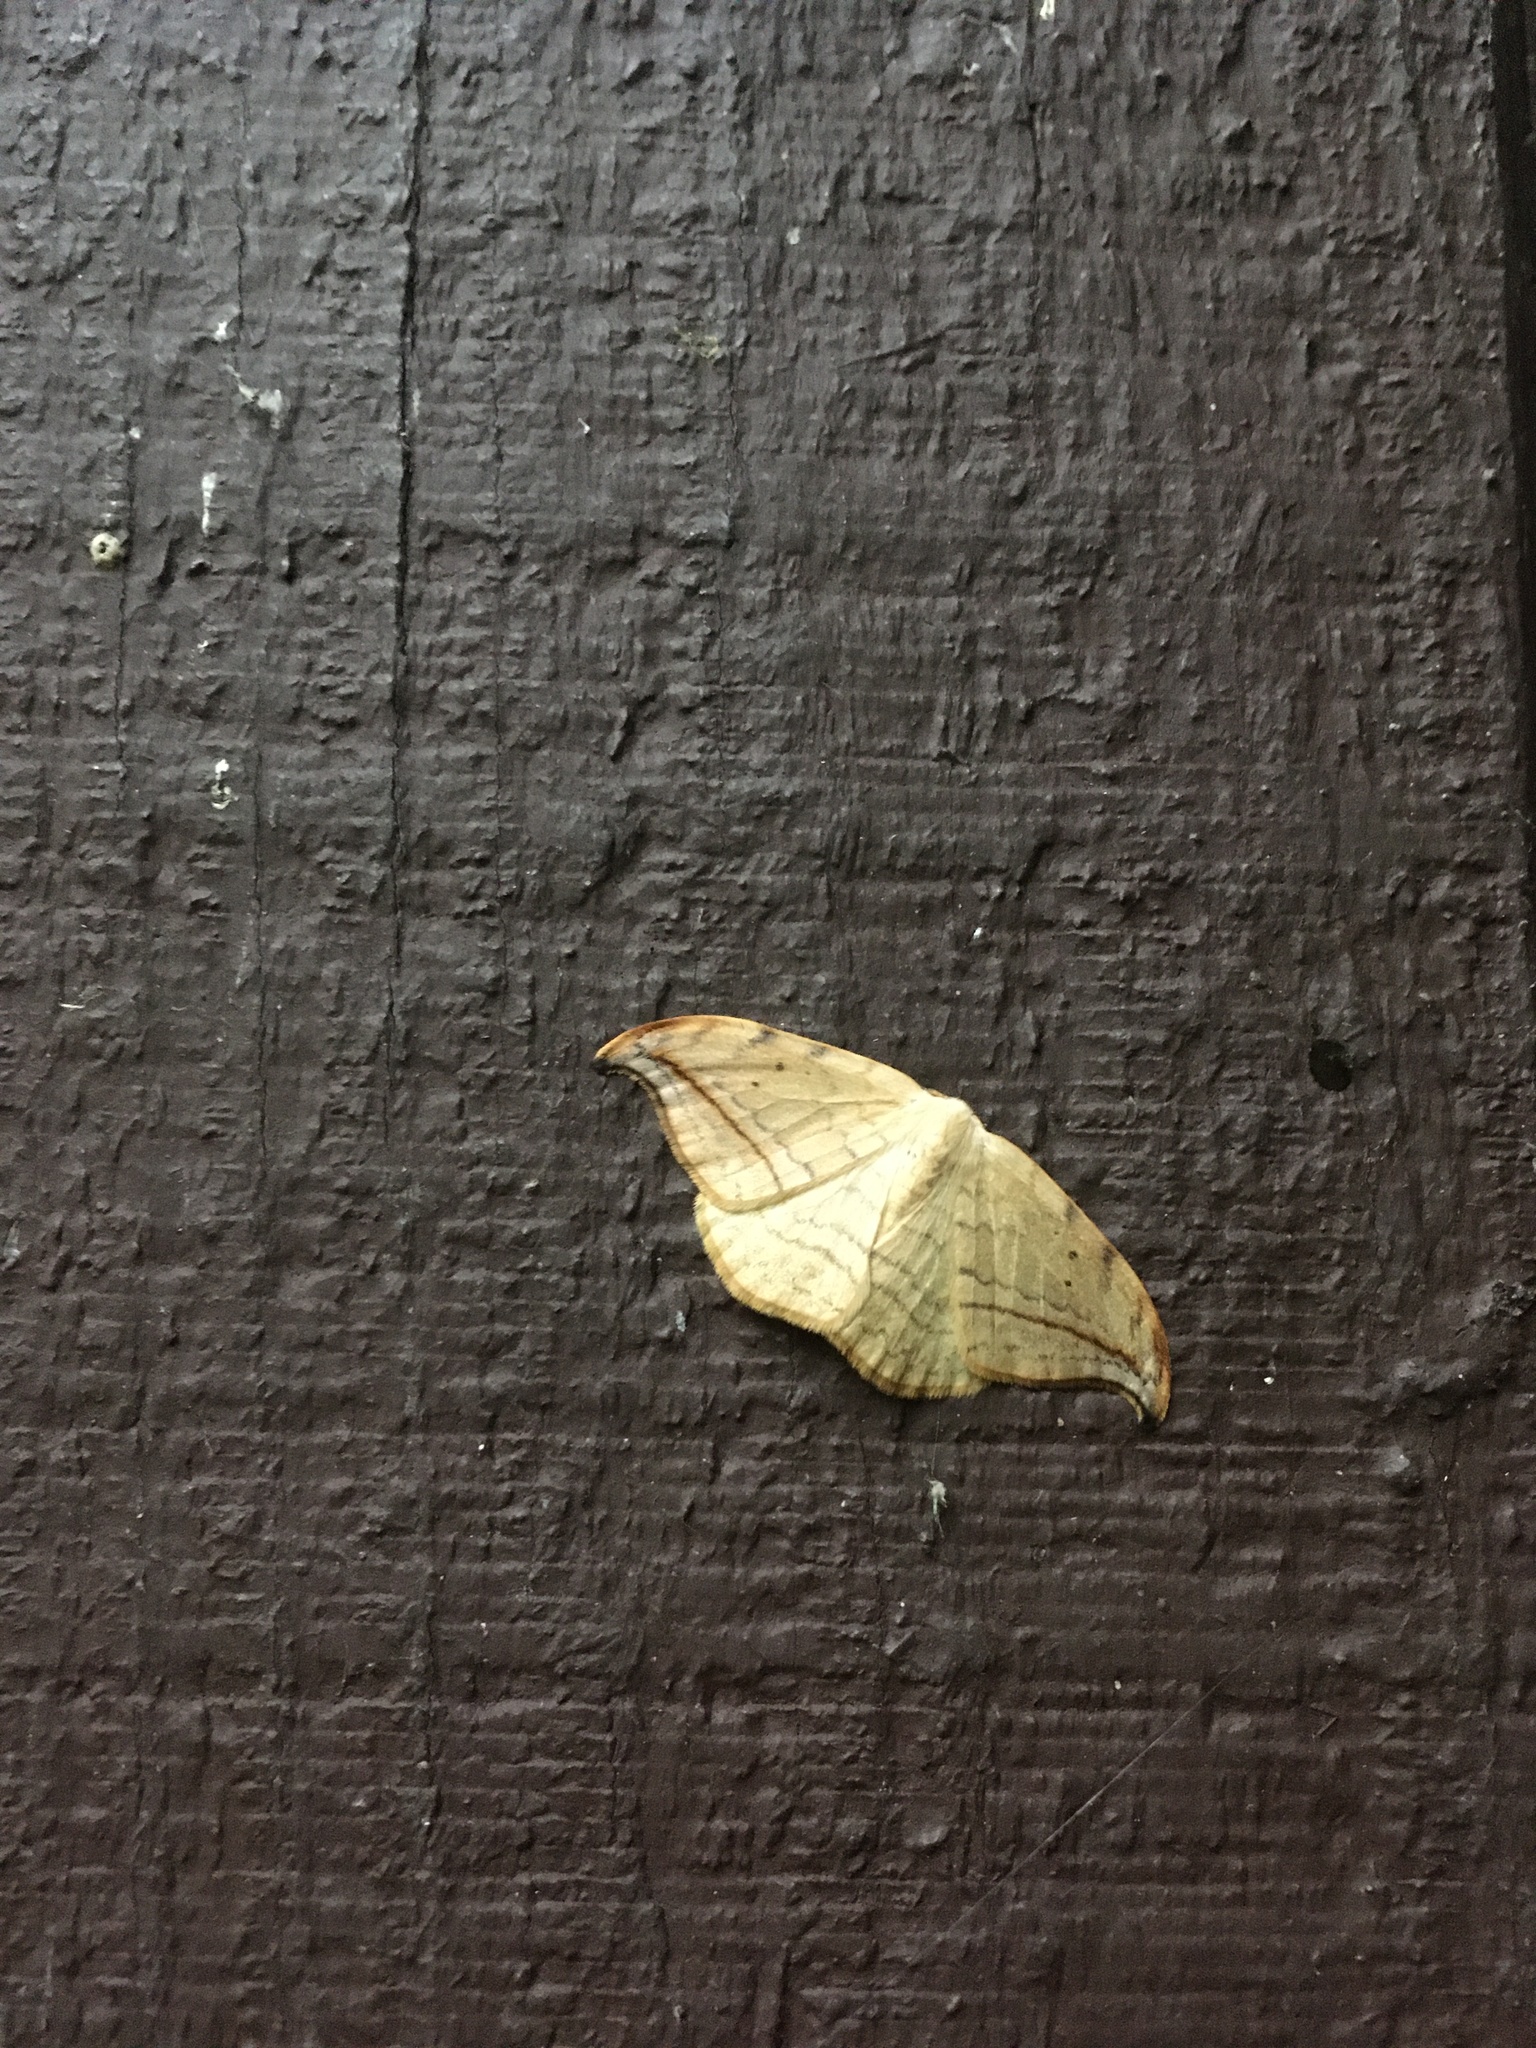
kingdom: Animalia
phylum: Arthropoda
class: Insecta
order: Lepidoptera
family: Drepanidae
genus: Drepana
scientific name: Drepana arcuata
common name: Arched hooktip moth
